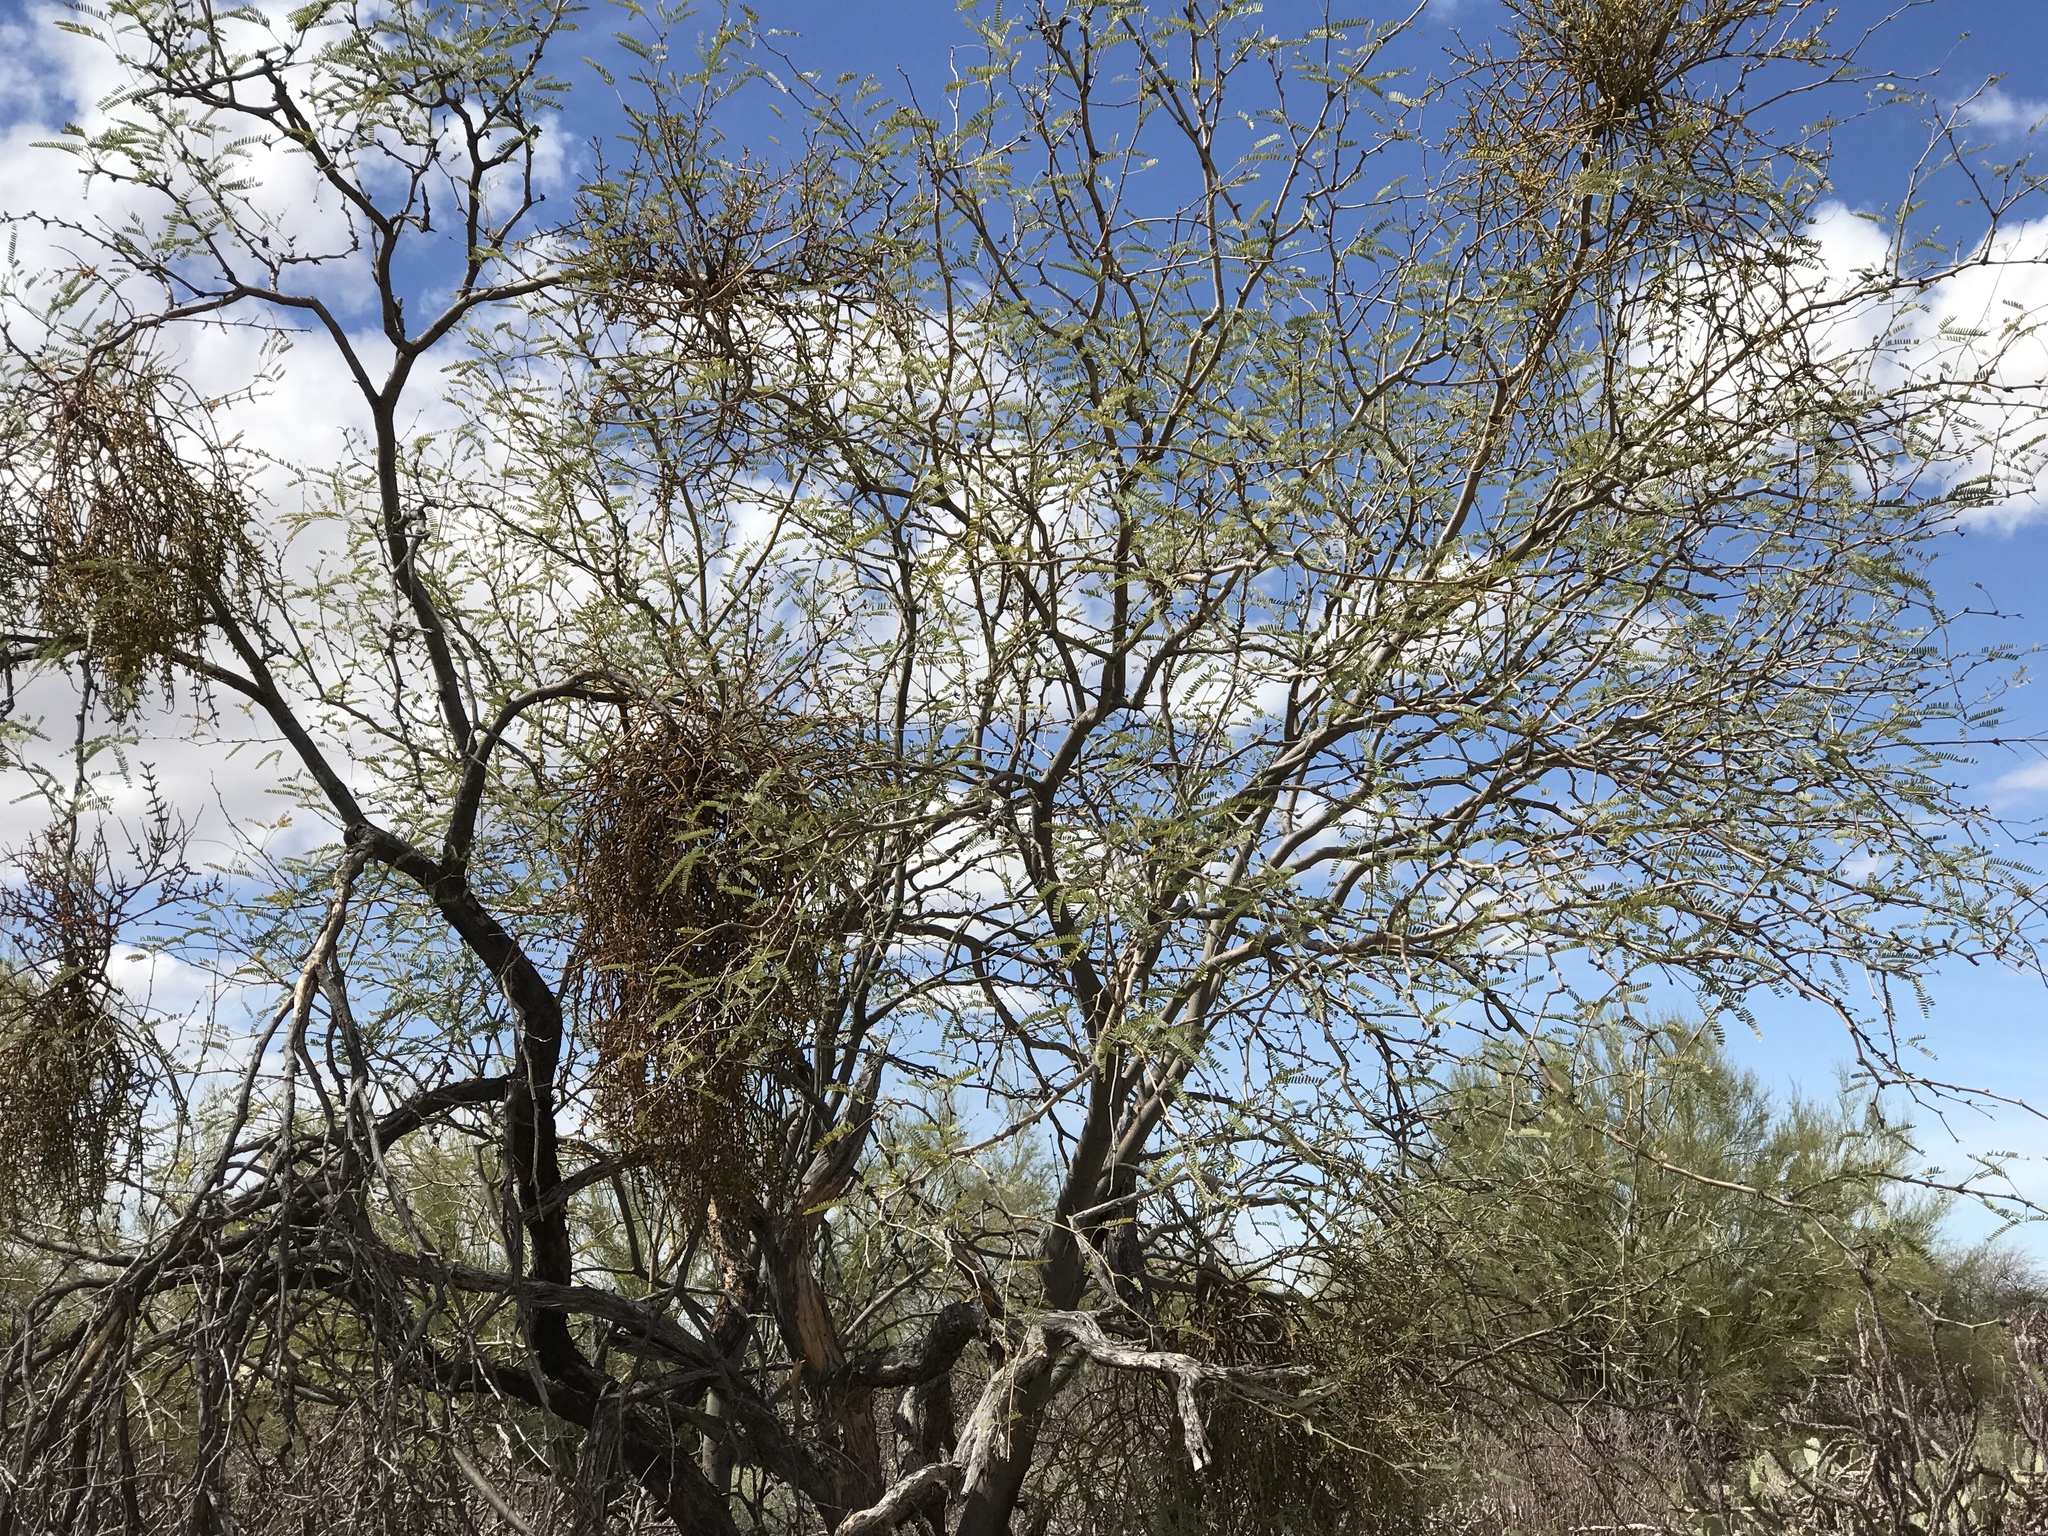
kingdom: Plantae
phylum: Tracheophyta
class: Magnoliopsida
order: Santalales
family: Viscaceae
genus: Phoradendron
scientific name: Phoradendron californicum
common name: Acacia mistletoe
